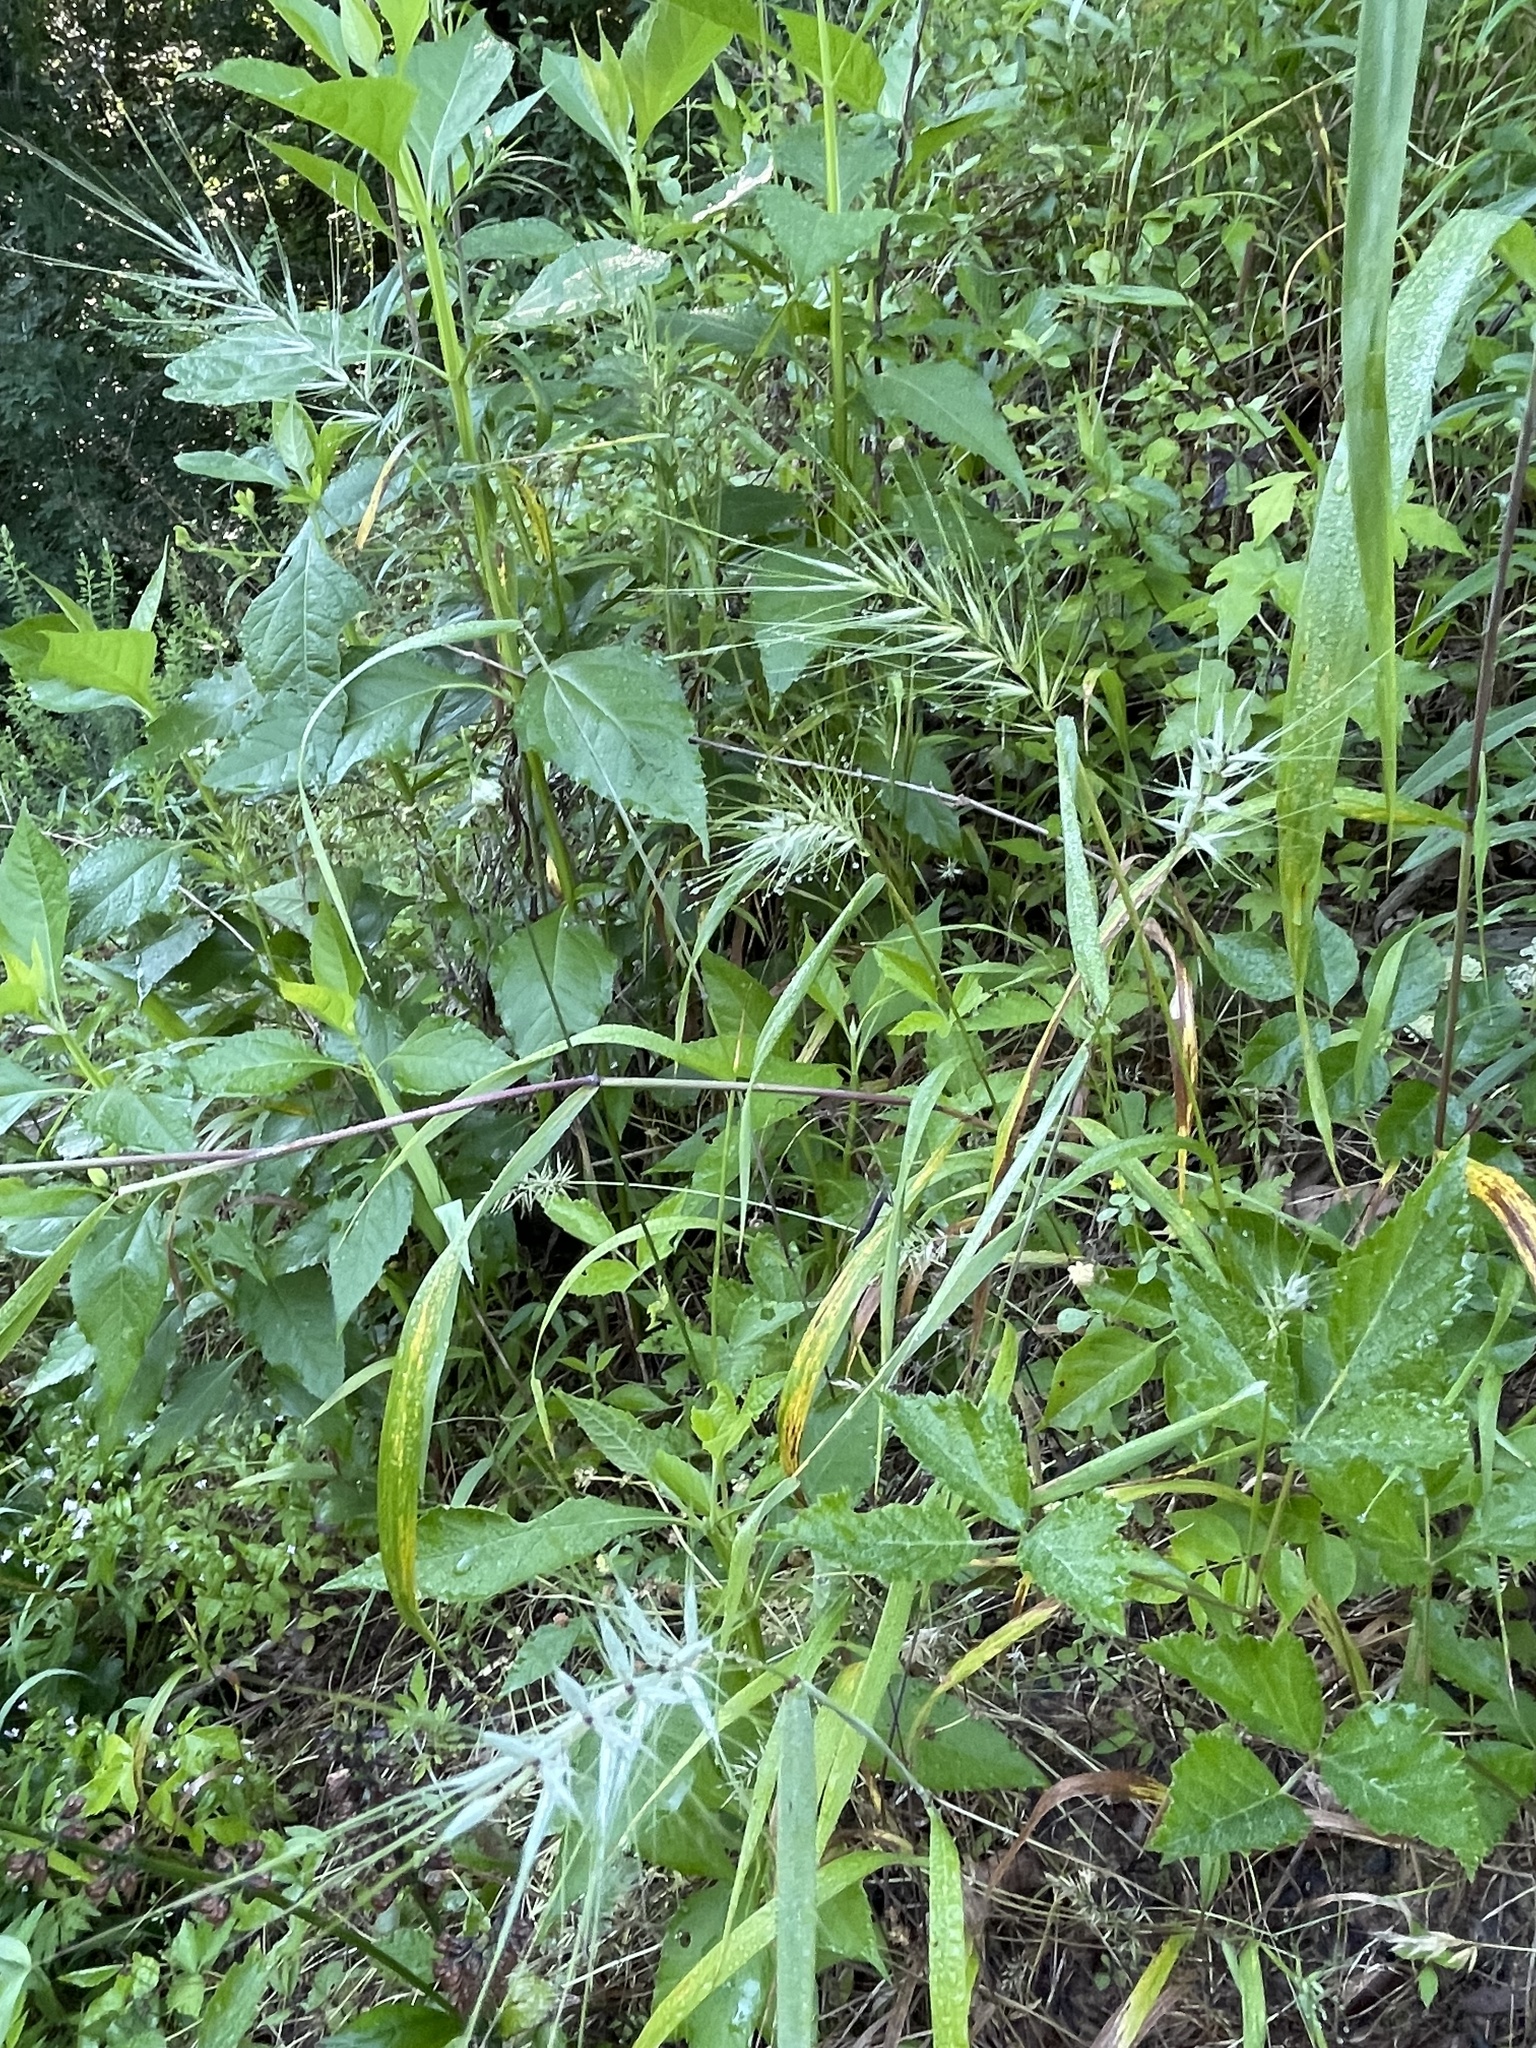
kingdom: Plantae
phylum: Tracheophyta
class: Liliopsida
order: Poales
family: Poaceae
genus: Elymus
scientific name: Elymus hystrix
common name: Bottlebrush grass
